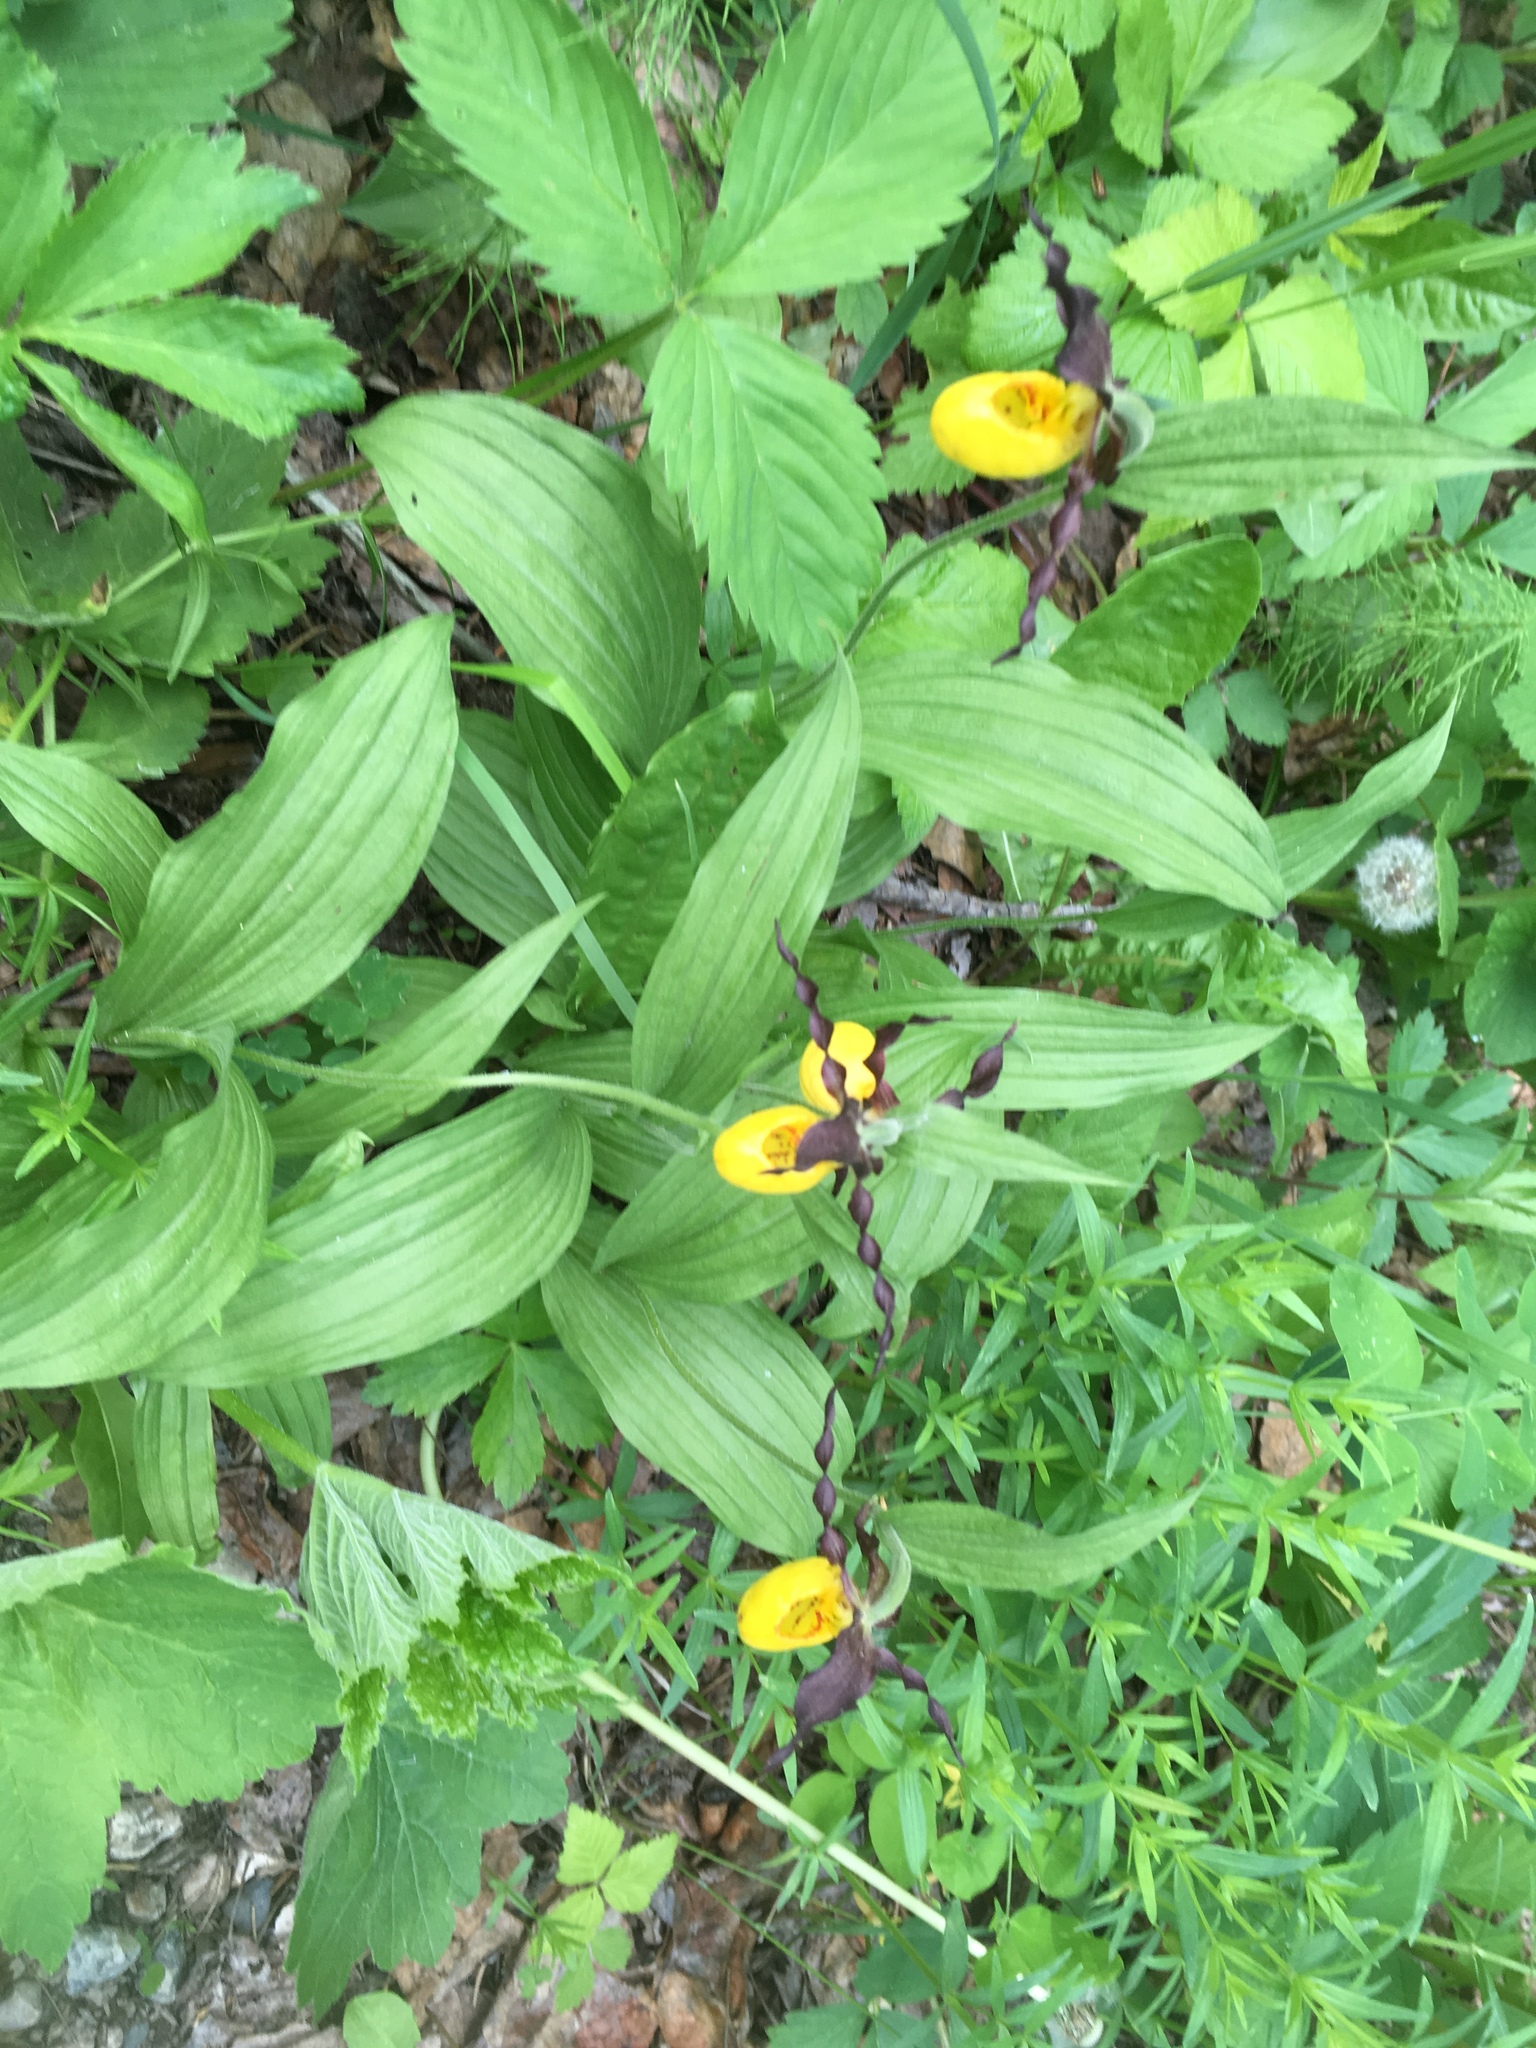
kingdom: Plantae
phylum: Tracheophyta
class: Liliopsida
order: Asparagales
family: Orchidaceae
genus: Cypripedium
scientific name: Cypripedium parviflorum
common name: American yellow lady's-slipper
